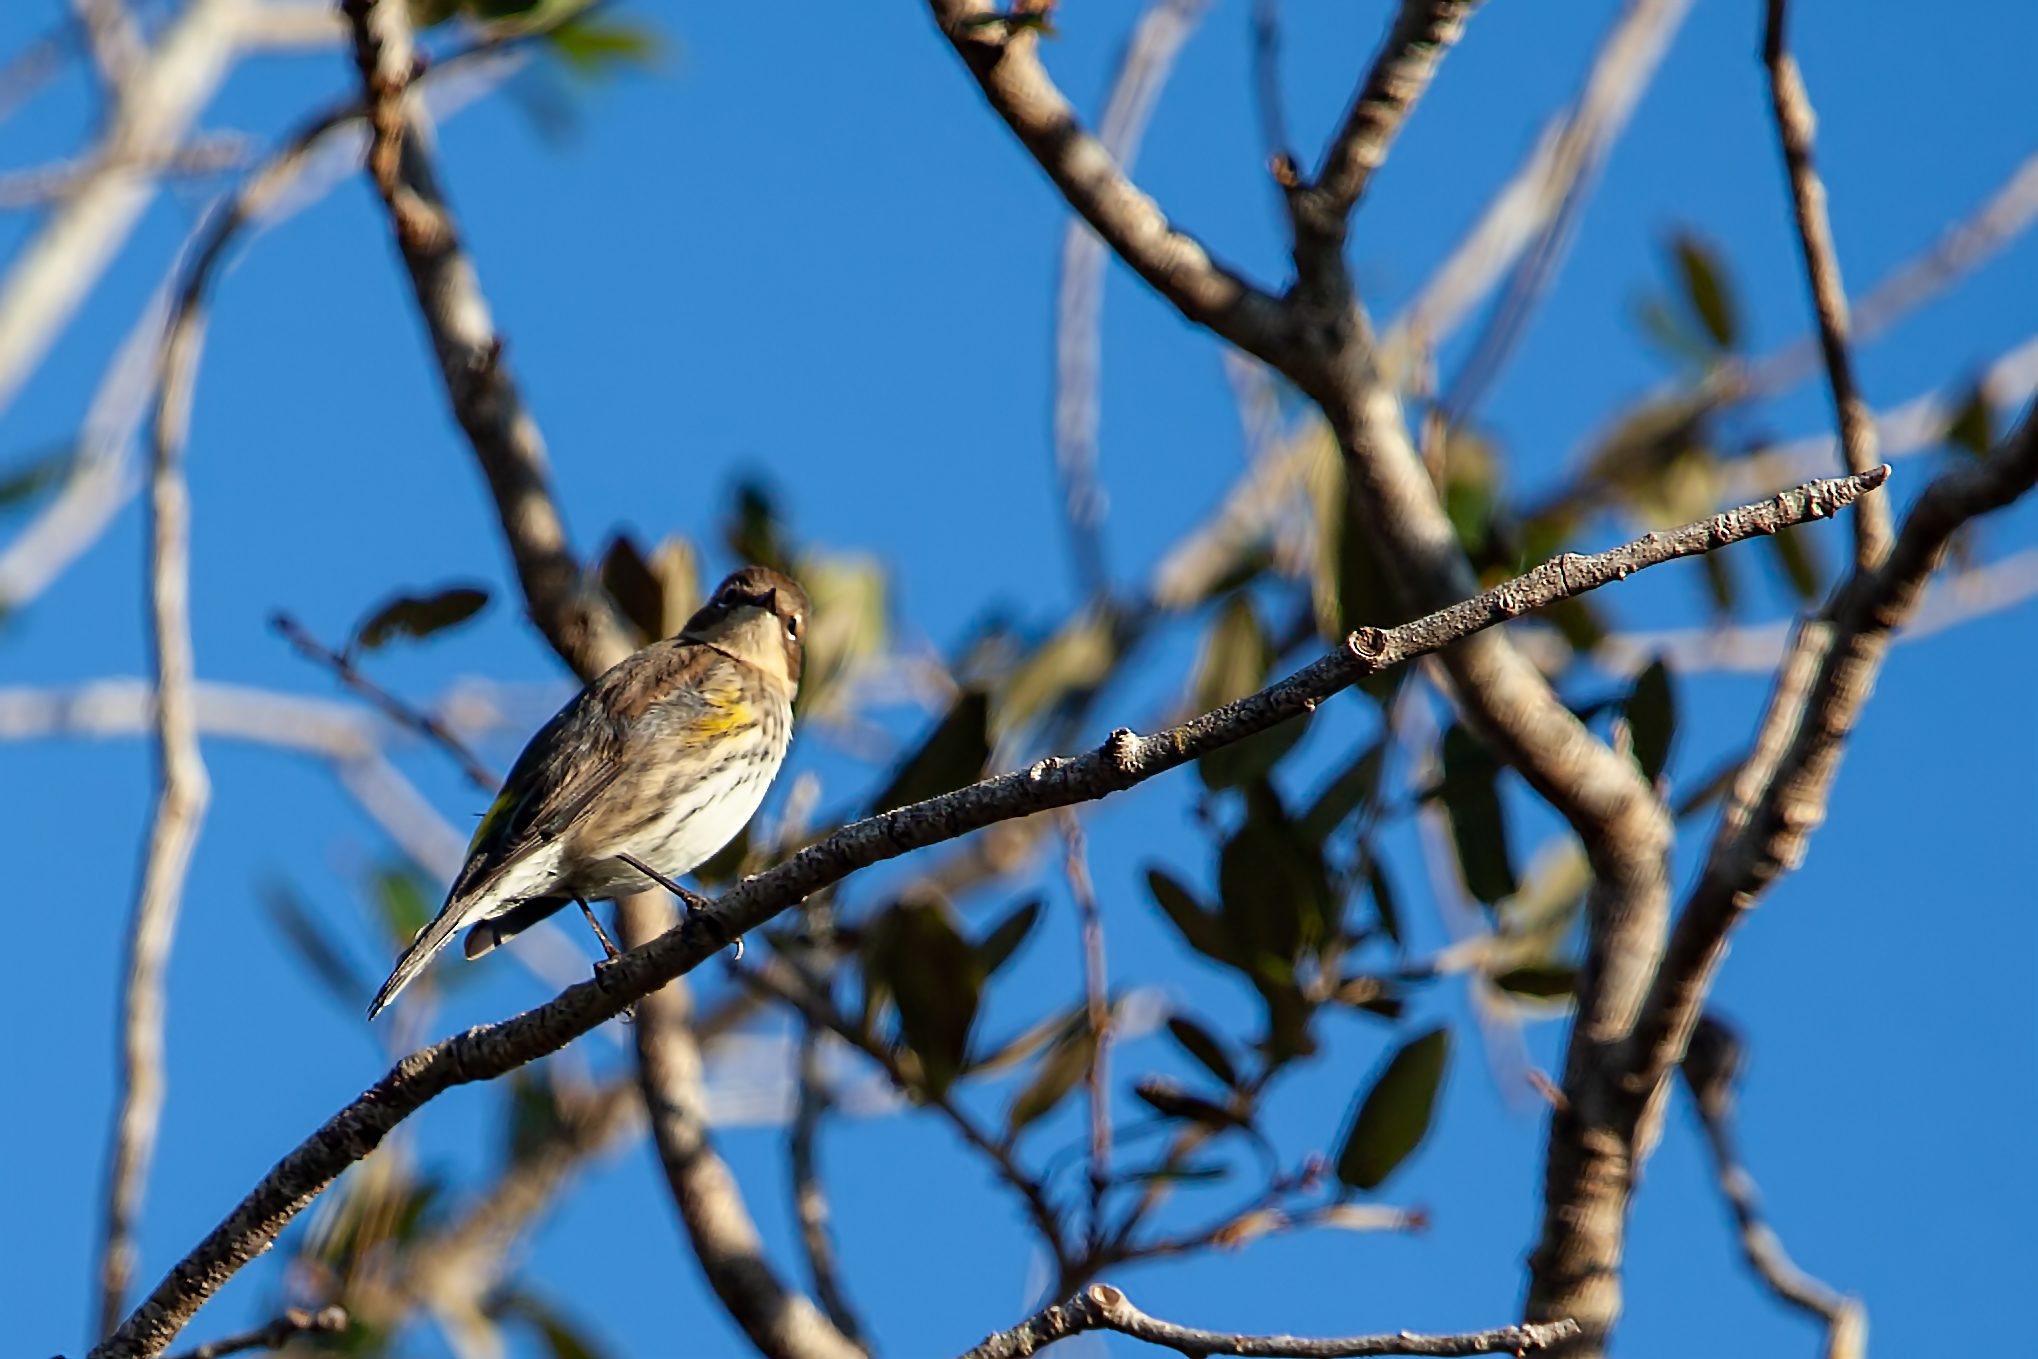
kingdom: Animalia
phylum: Chordata
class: Aves
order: Passeriformes
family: Parulidae
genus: Setophaga
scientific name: Setophaga coronata
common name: Myrtle warbler
